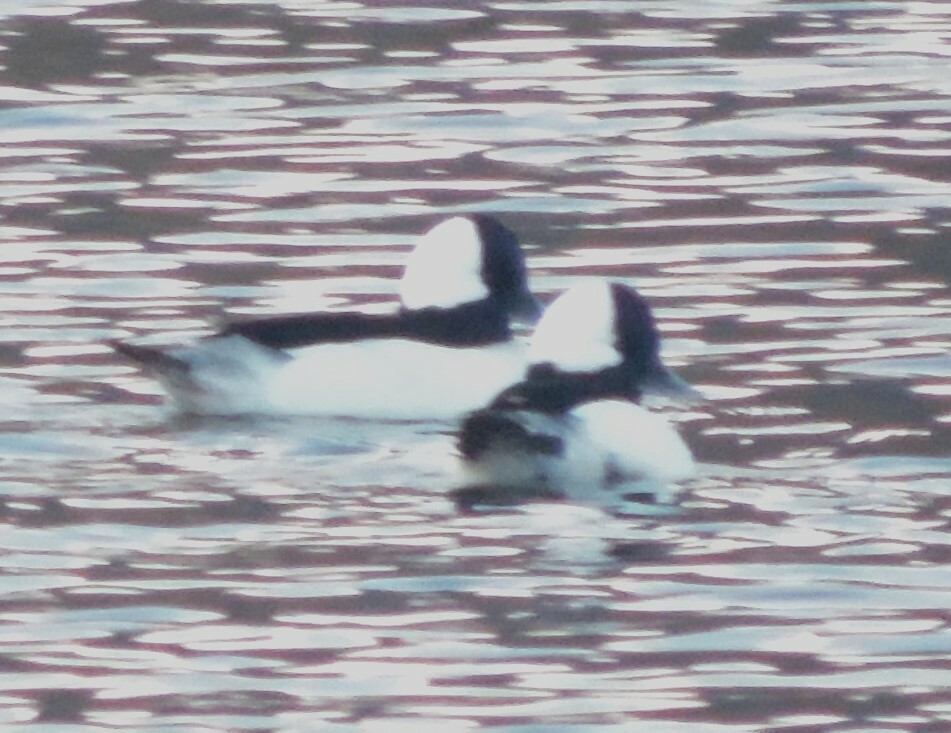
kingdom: Animalia
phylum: Chordata
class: Aves
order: Anseriformes
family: Anatidae
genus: Bucephala
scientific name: Bucephala albeola
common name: Bufflehead
